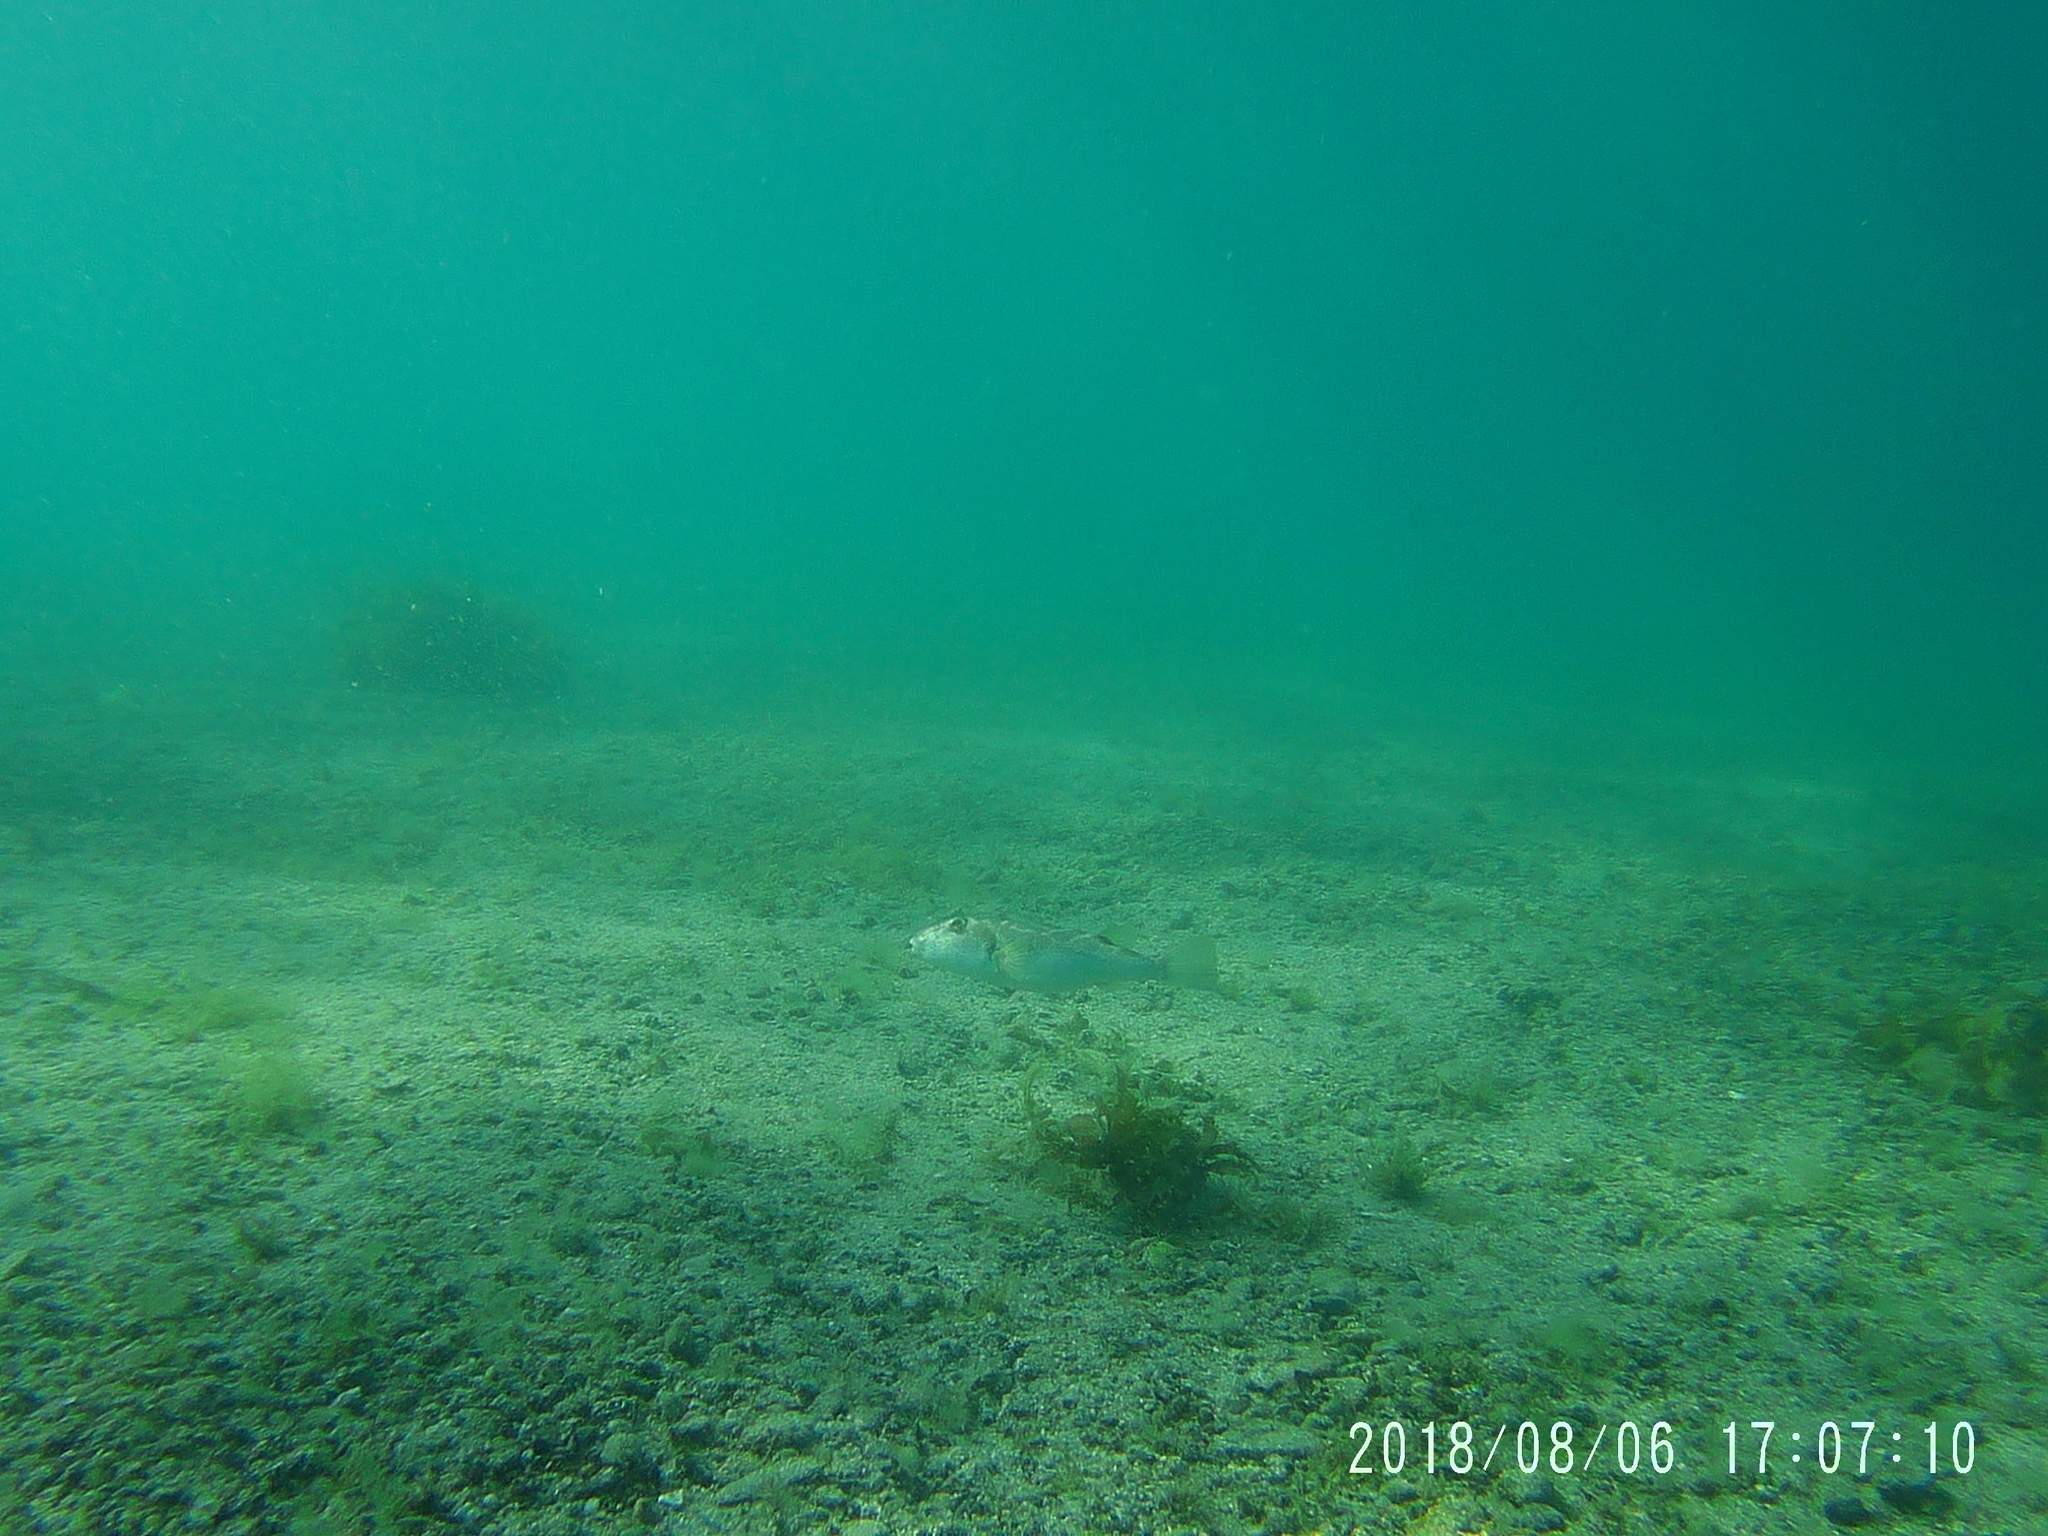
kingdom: Animalia
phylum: Chordata
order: Tetraodontiformes
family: Tetraodontidae
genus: Sphoeroides
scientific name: Sphoeroides annulatus
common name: Bullseye puffer
